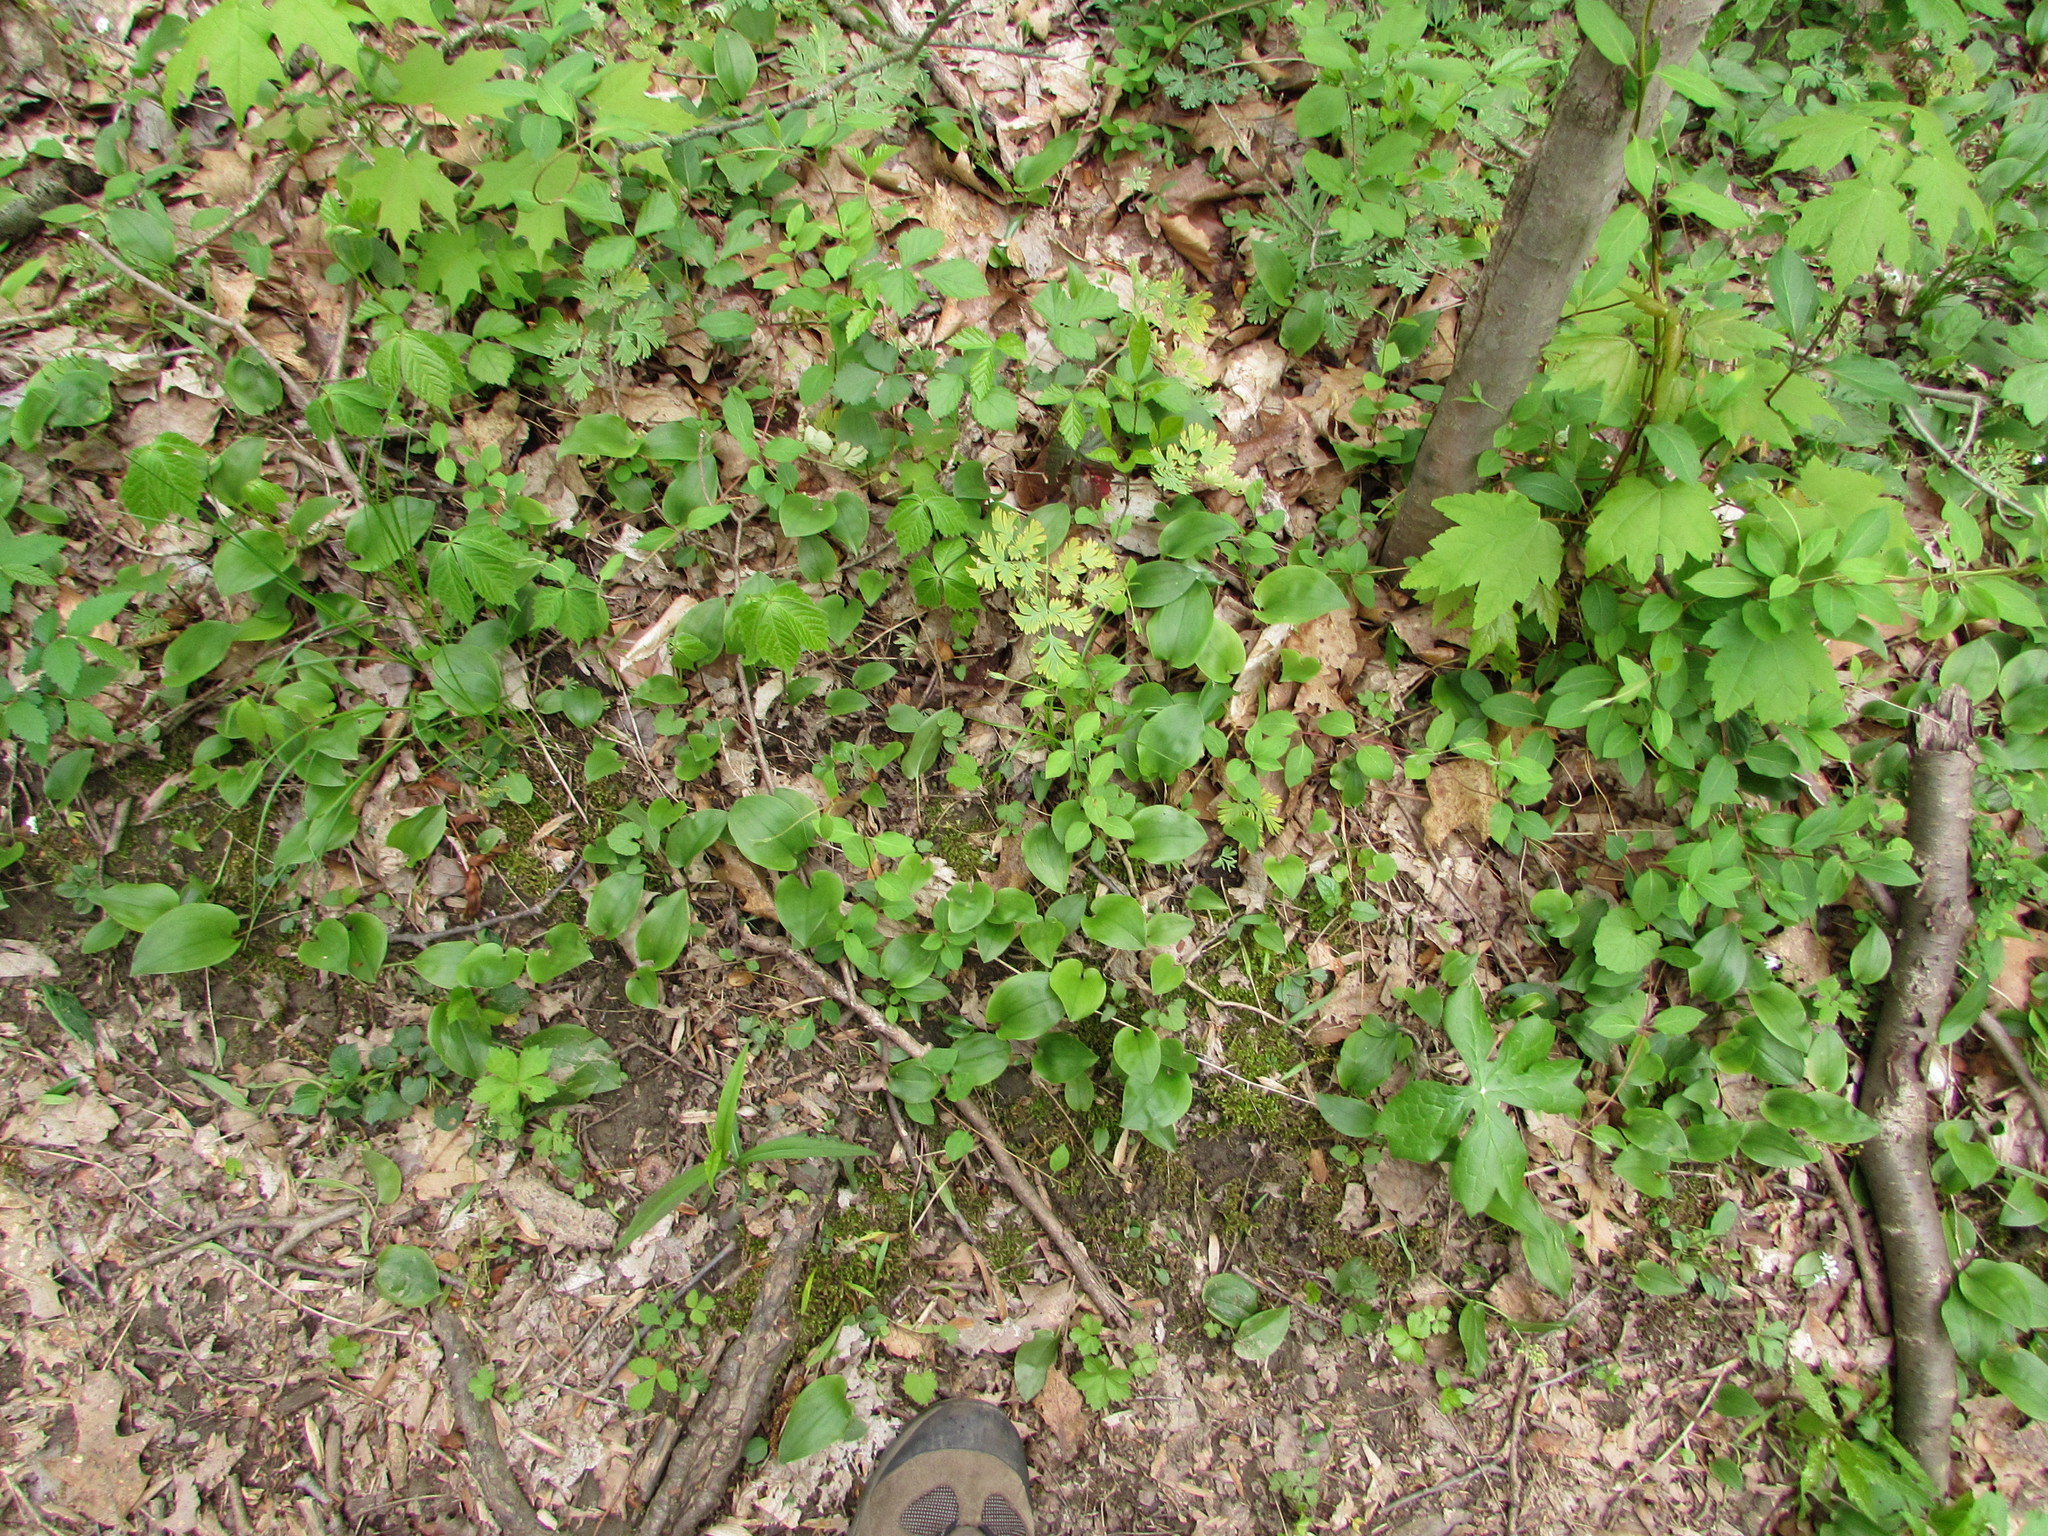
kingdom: Plantae
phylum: Tracheophyta
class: Liliopsida
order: Asparagales
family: Asparagaceae
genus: Maianthemum
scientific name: Maianthemum canadense
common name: False lily-of-the-valley
